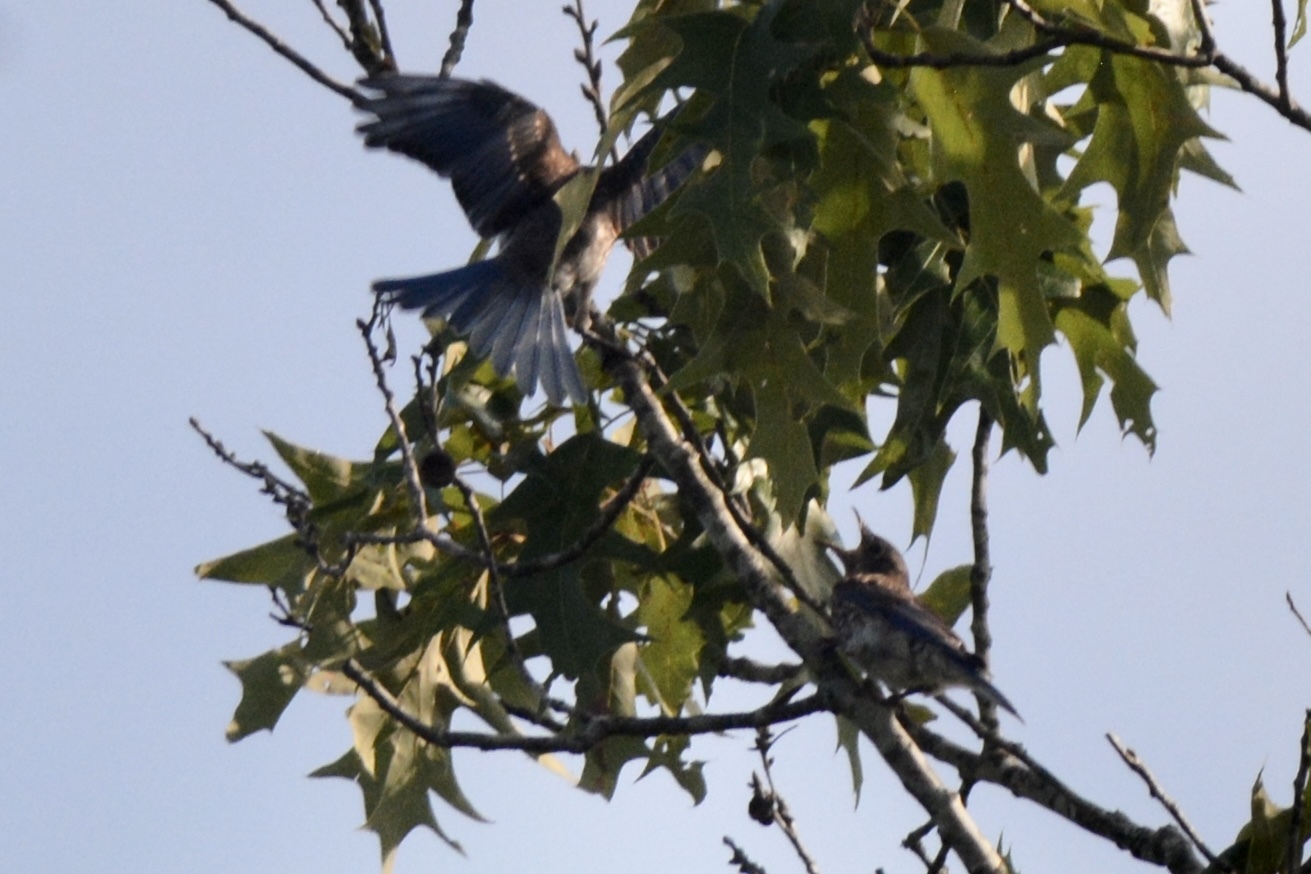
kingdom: Animalia
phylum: Chordata
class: Aves
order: Passeriformes
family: Turdidae
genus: Sialia
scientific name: Sialia sialis
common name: Eastern bluebird
